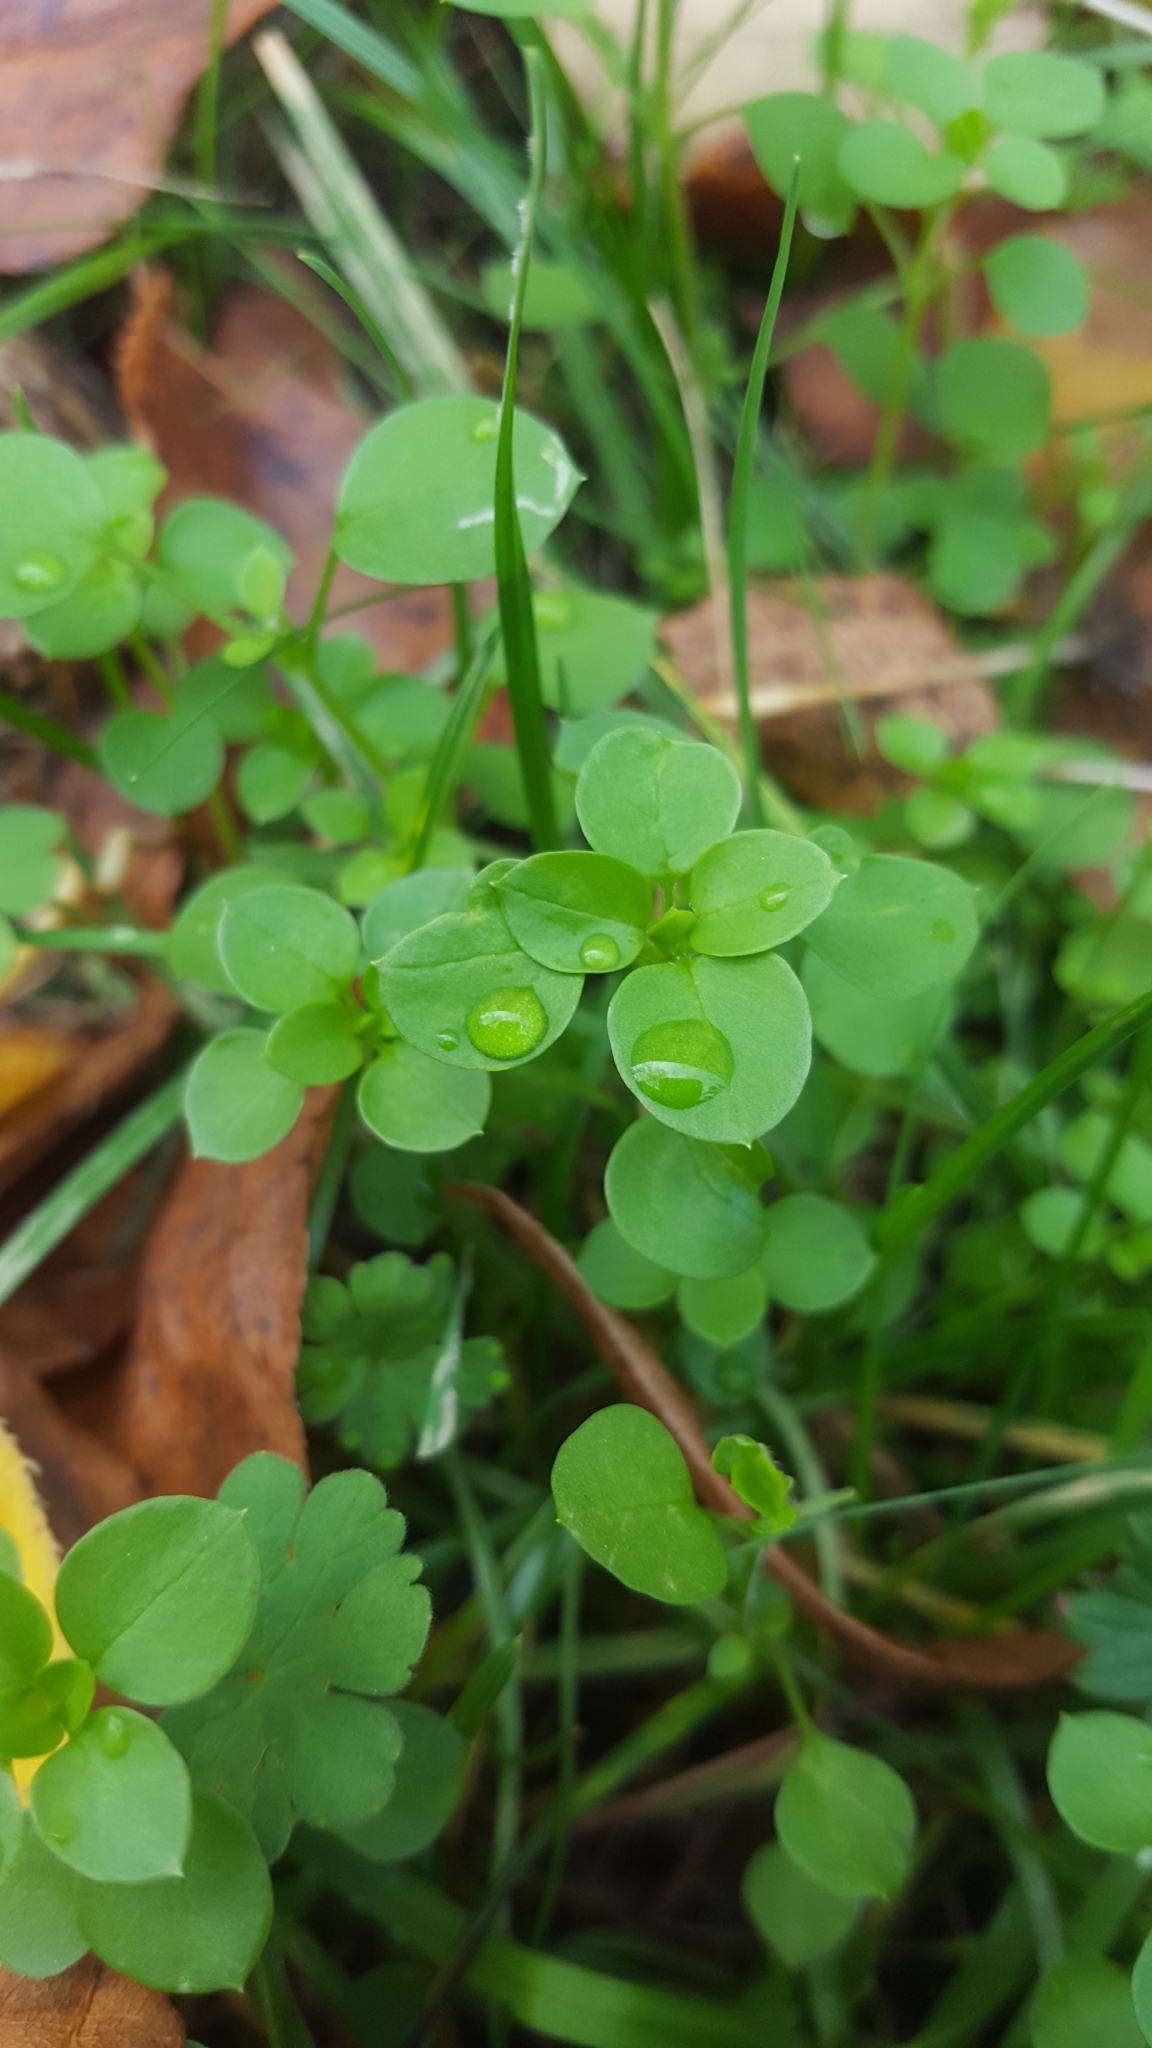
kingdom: Plantae
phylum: Tracheophyta
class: Magnoliopsida
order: Caryophyllales
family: Caryophyllaceae
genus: Stellaria
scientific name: Stellaria media
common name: Common chickweed
